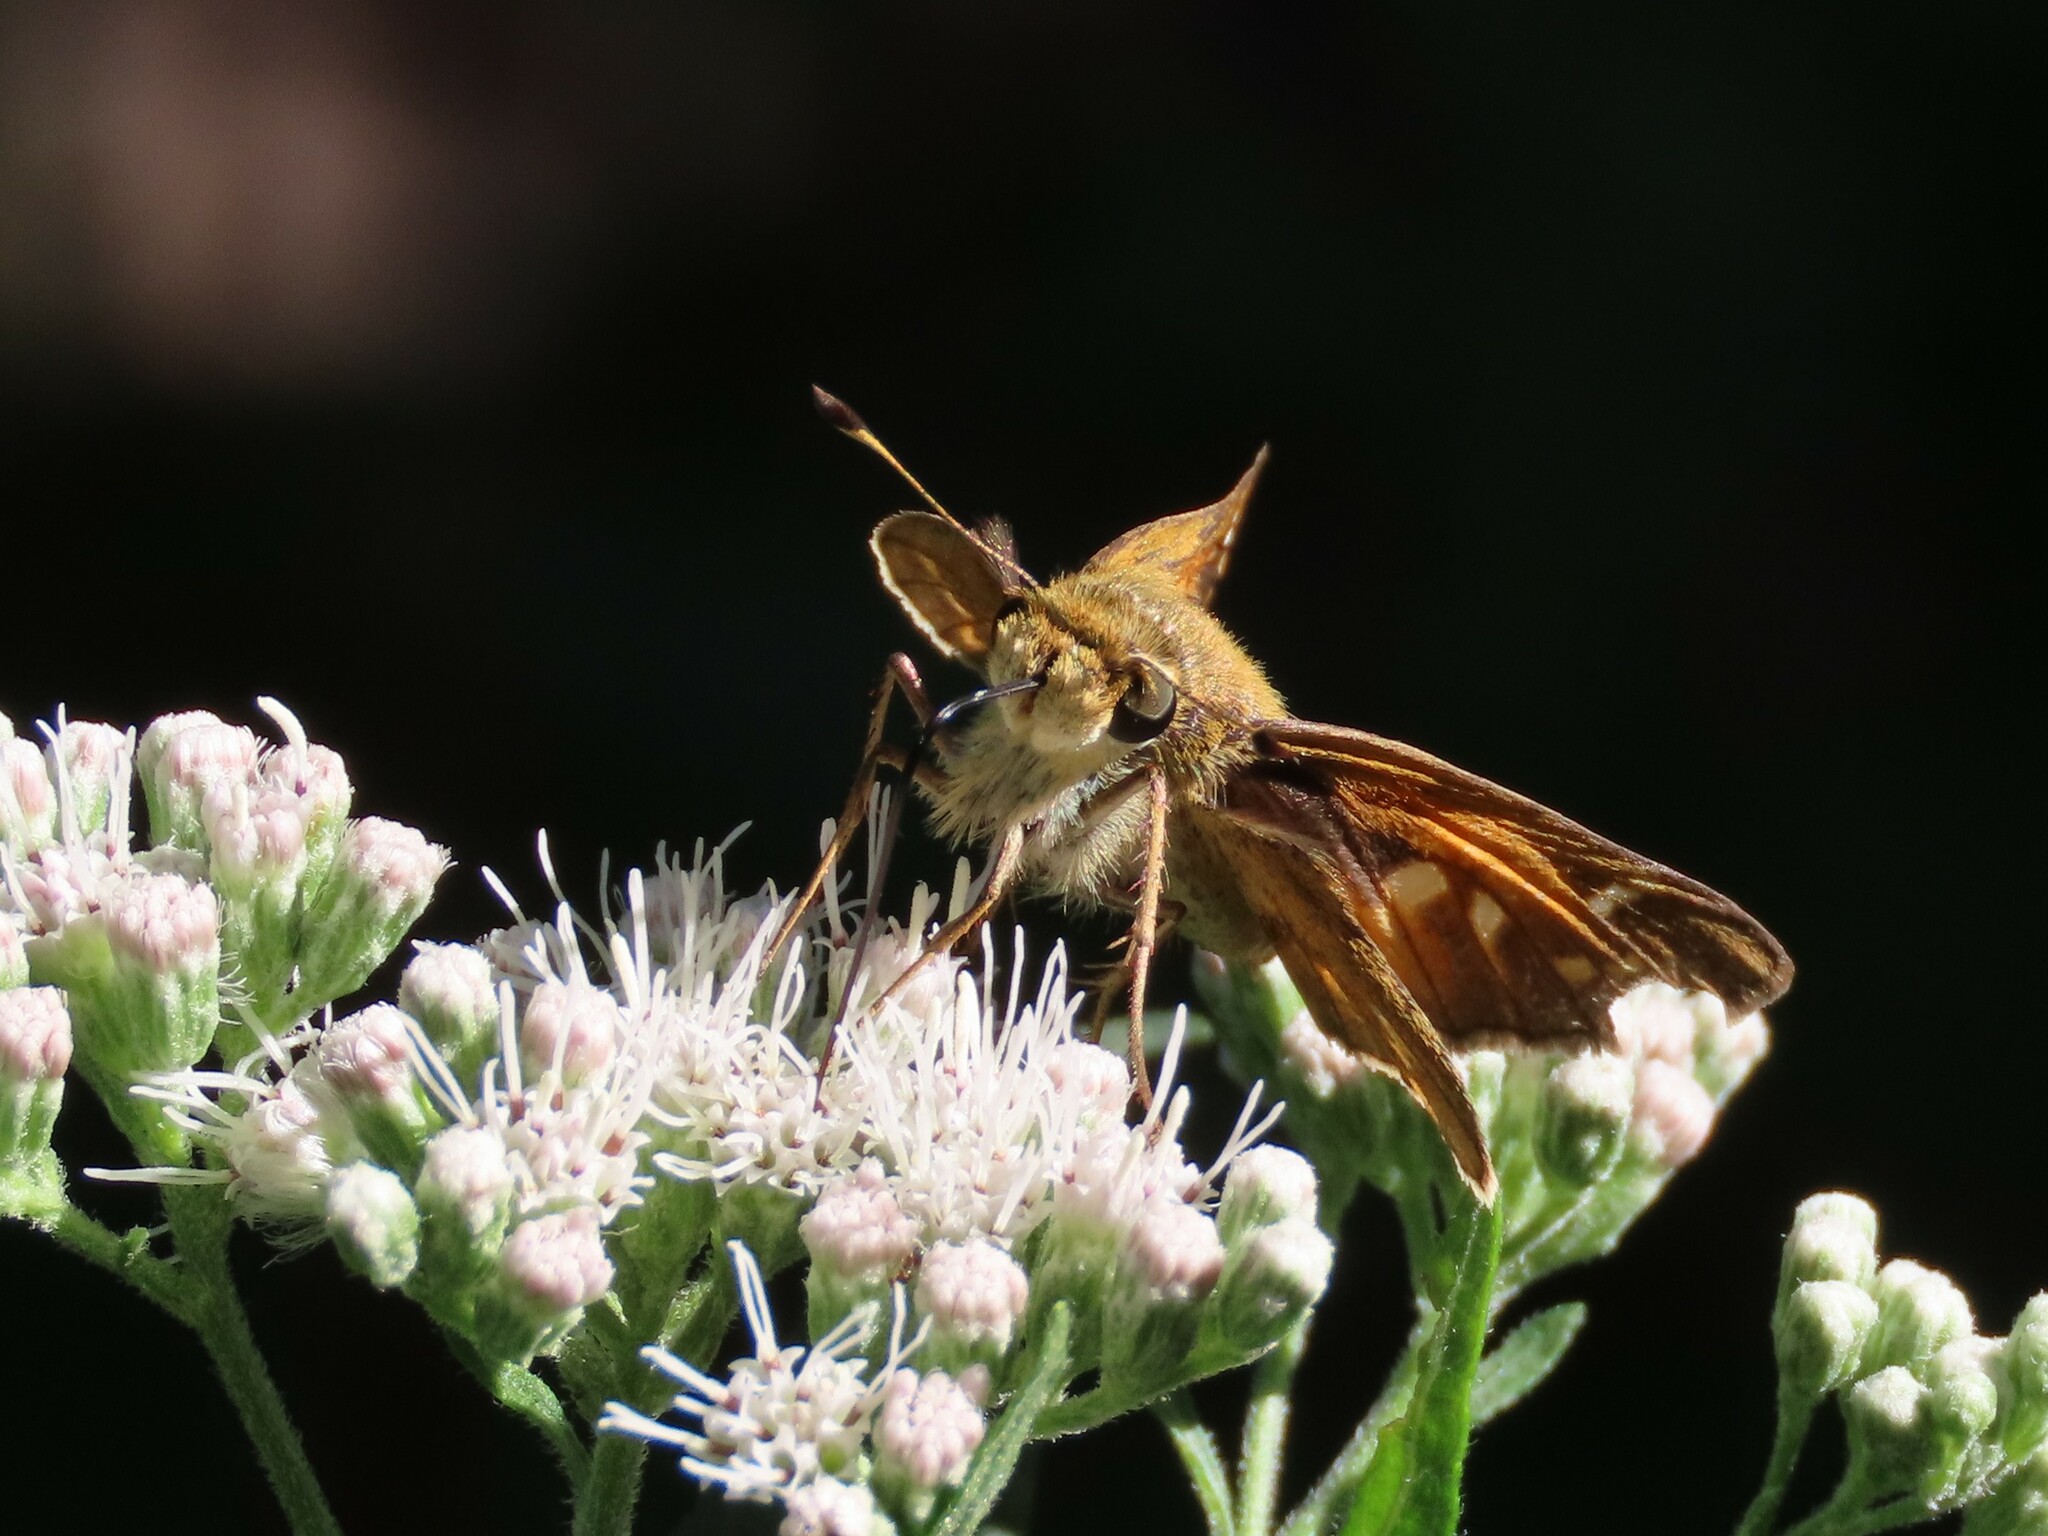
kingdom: Animalia
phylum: Arthropoda
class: Insecta
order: Lepidoptera
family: Hesperiidae
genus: Atalopedes
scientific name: Atalopedes
